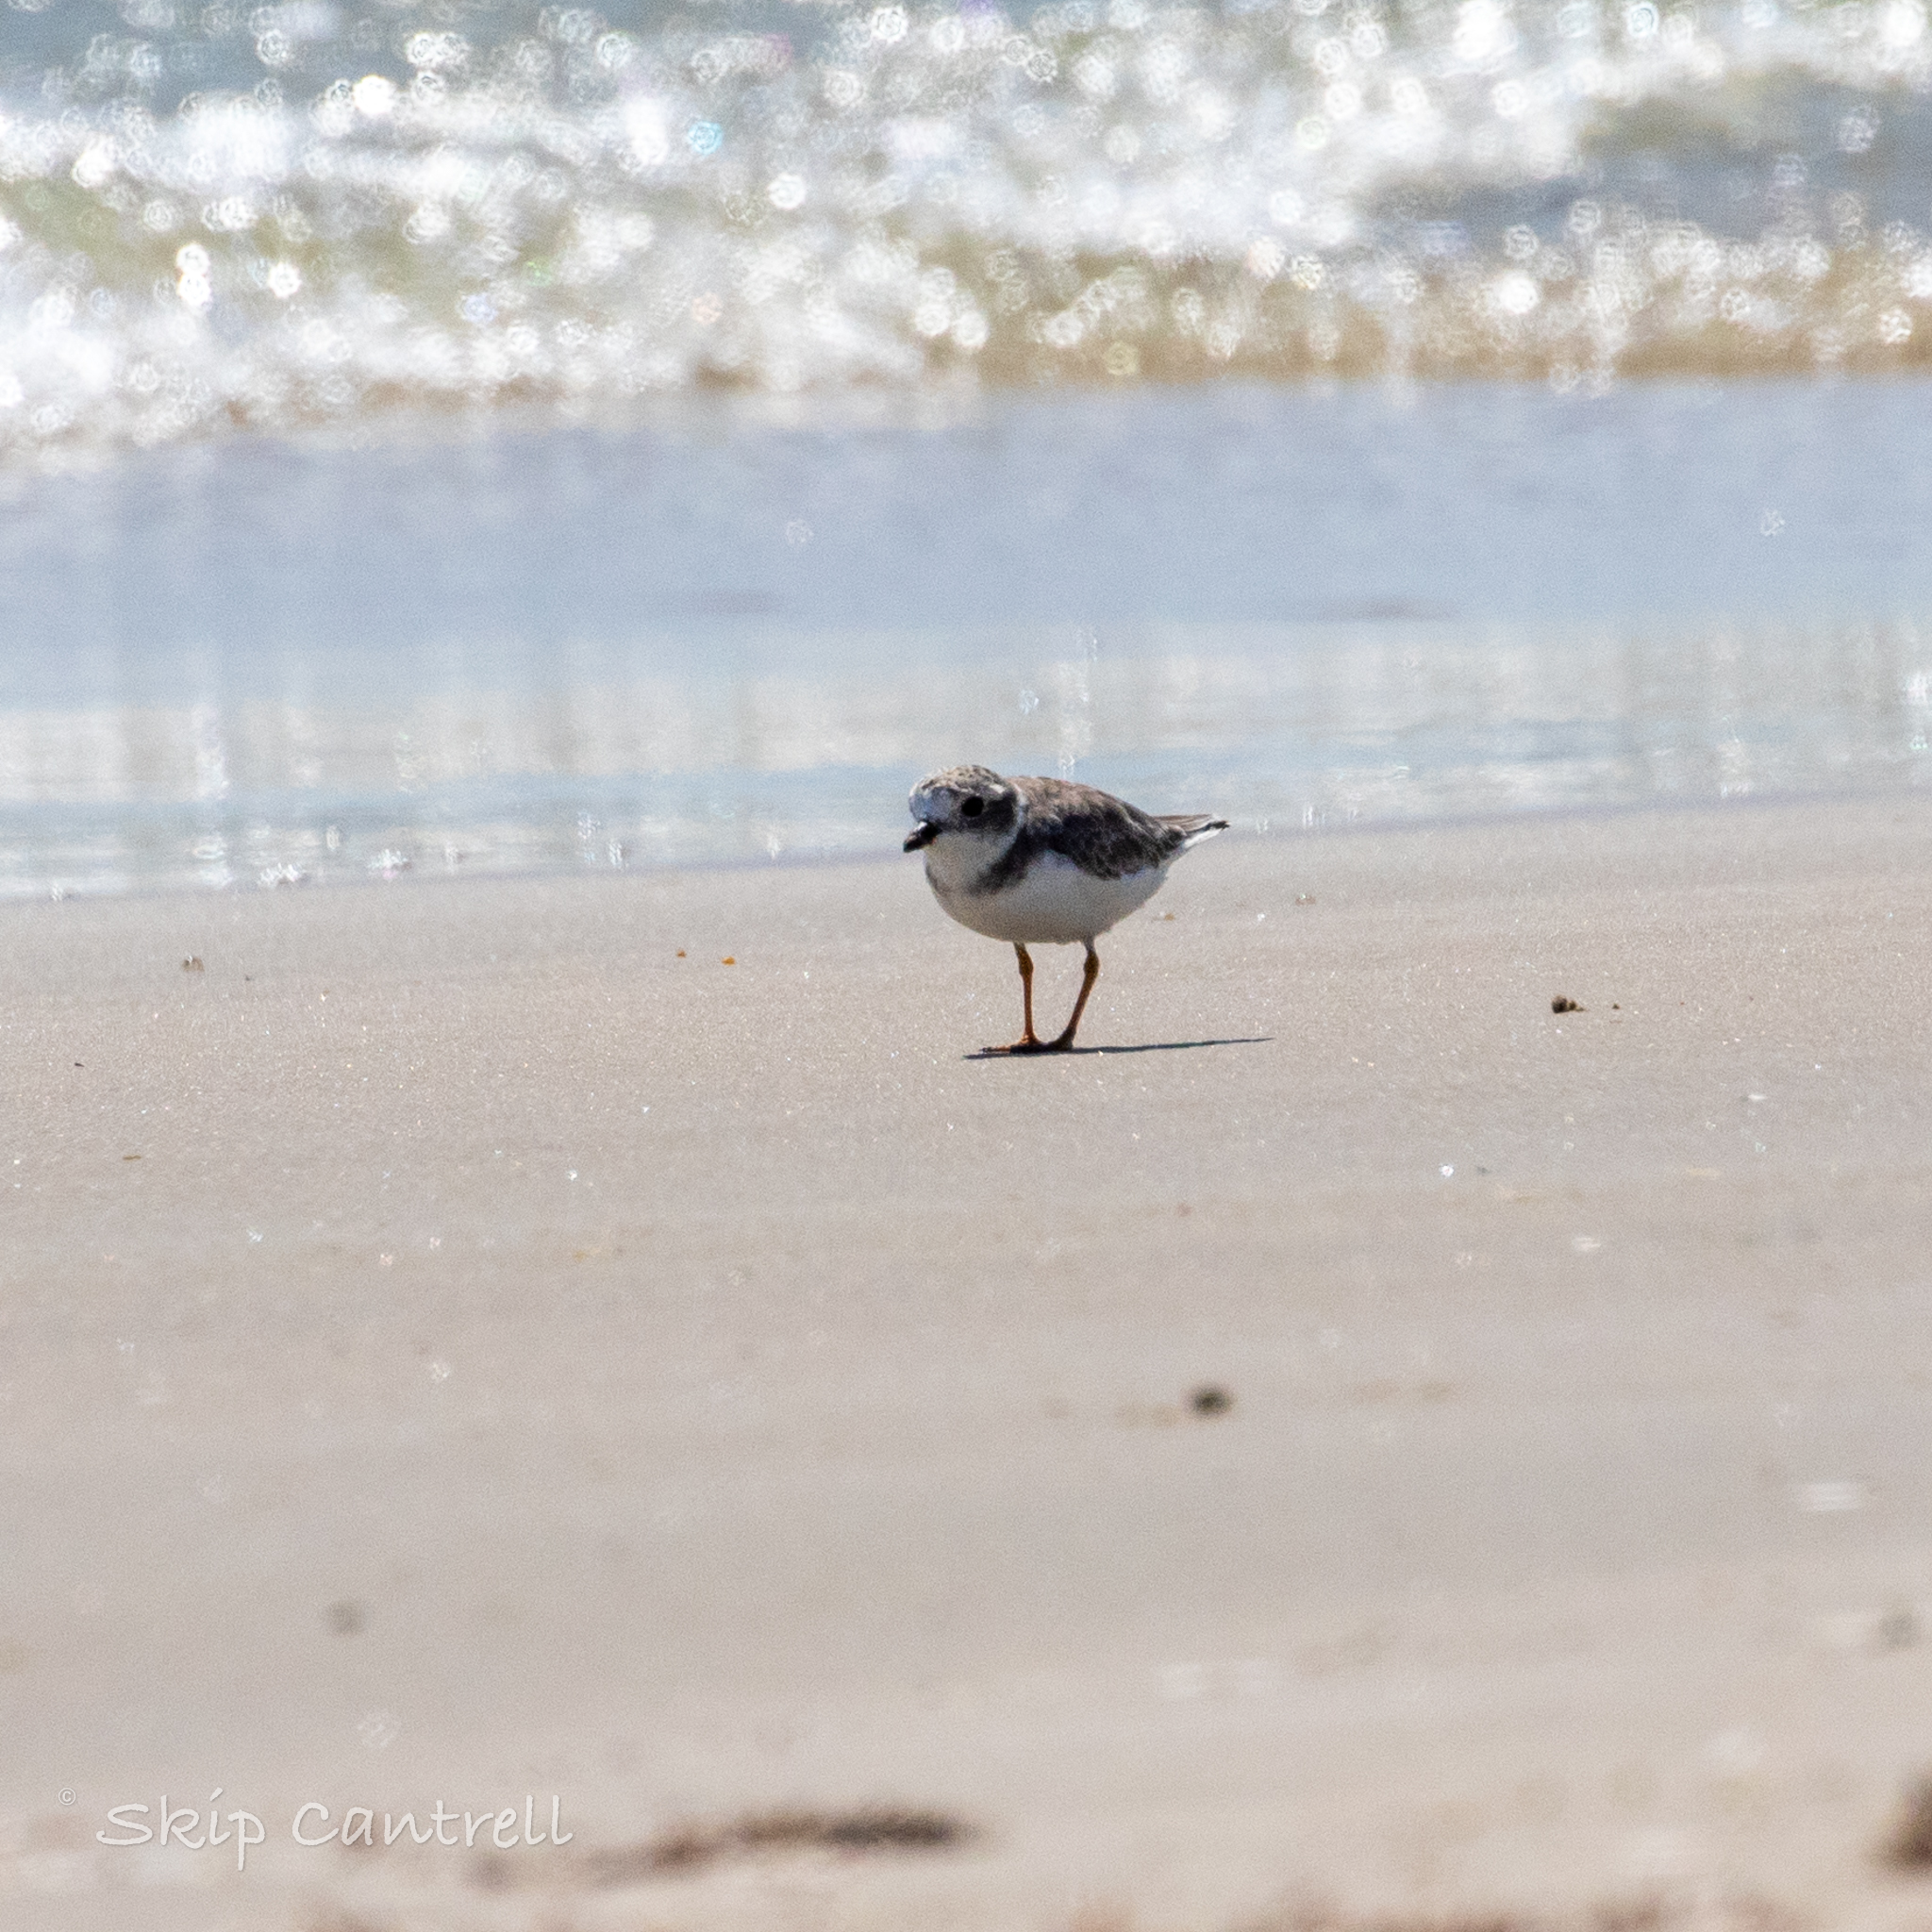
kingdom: Animalia
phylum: Chordata
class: Aves
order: Charadriiformes
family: Charadriidae
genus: Charadrius
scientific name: Charadrius melodus
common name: Piping plover
